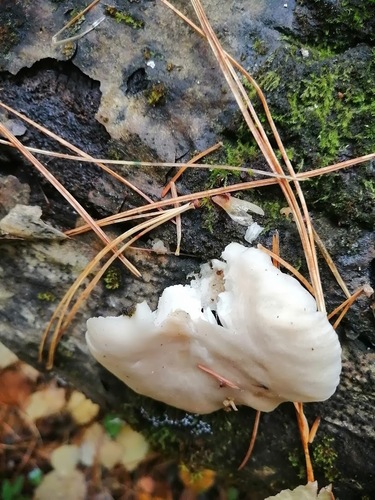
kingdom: Fungi
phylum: Basidiomycota
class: Agaricomycetes
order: Agaricales
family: Pleurotaceae
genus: Pleurotus
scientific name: Pleurotus pulmonarius
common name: Pale oyster
